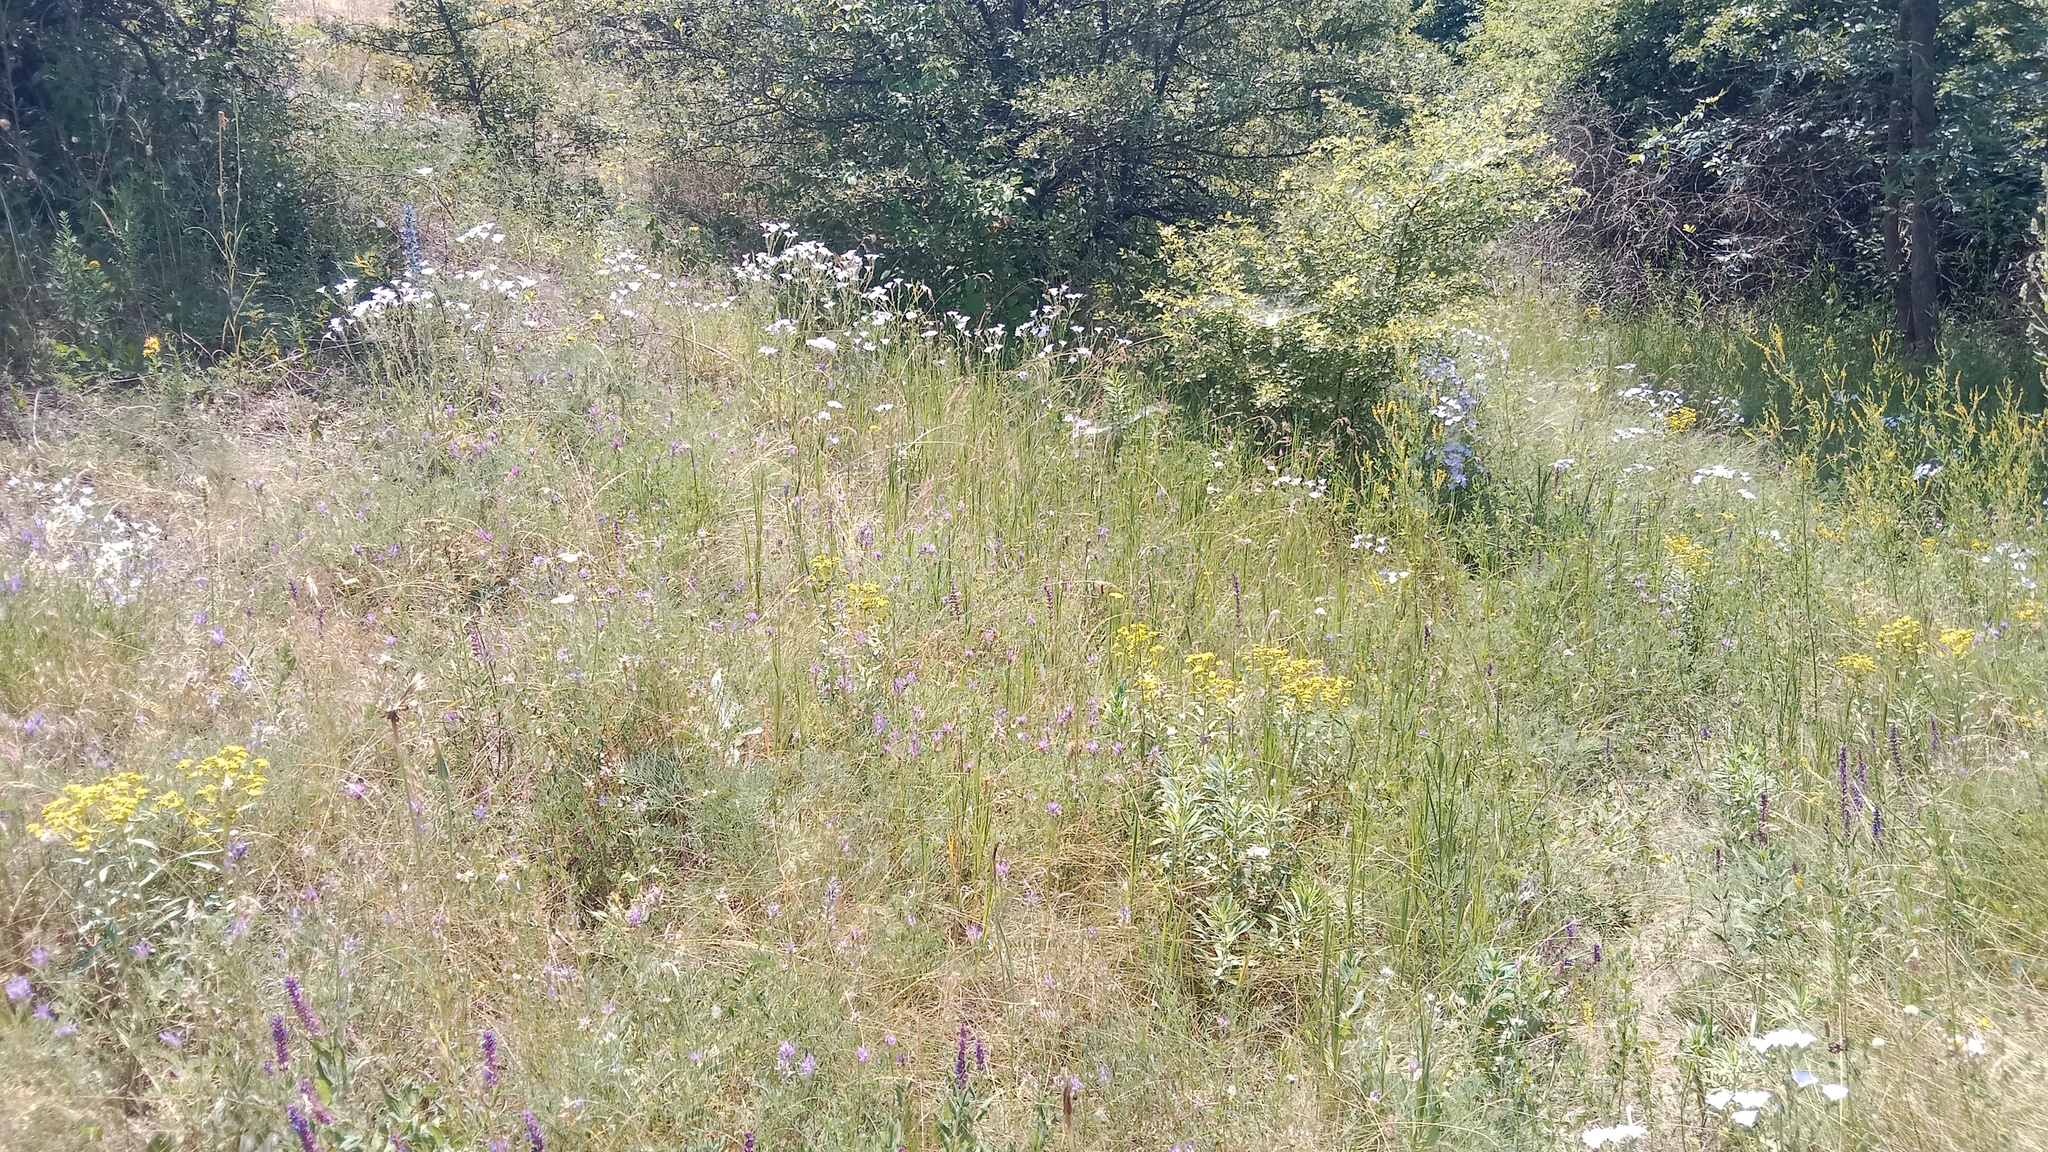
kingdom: Plantae
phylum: Tracheophyta
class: Magnoliopsida
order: Malpighiales
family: Linaceae
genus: Linum
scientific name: Linum hirsutum
